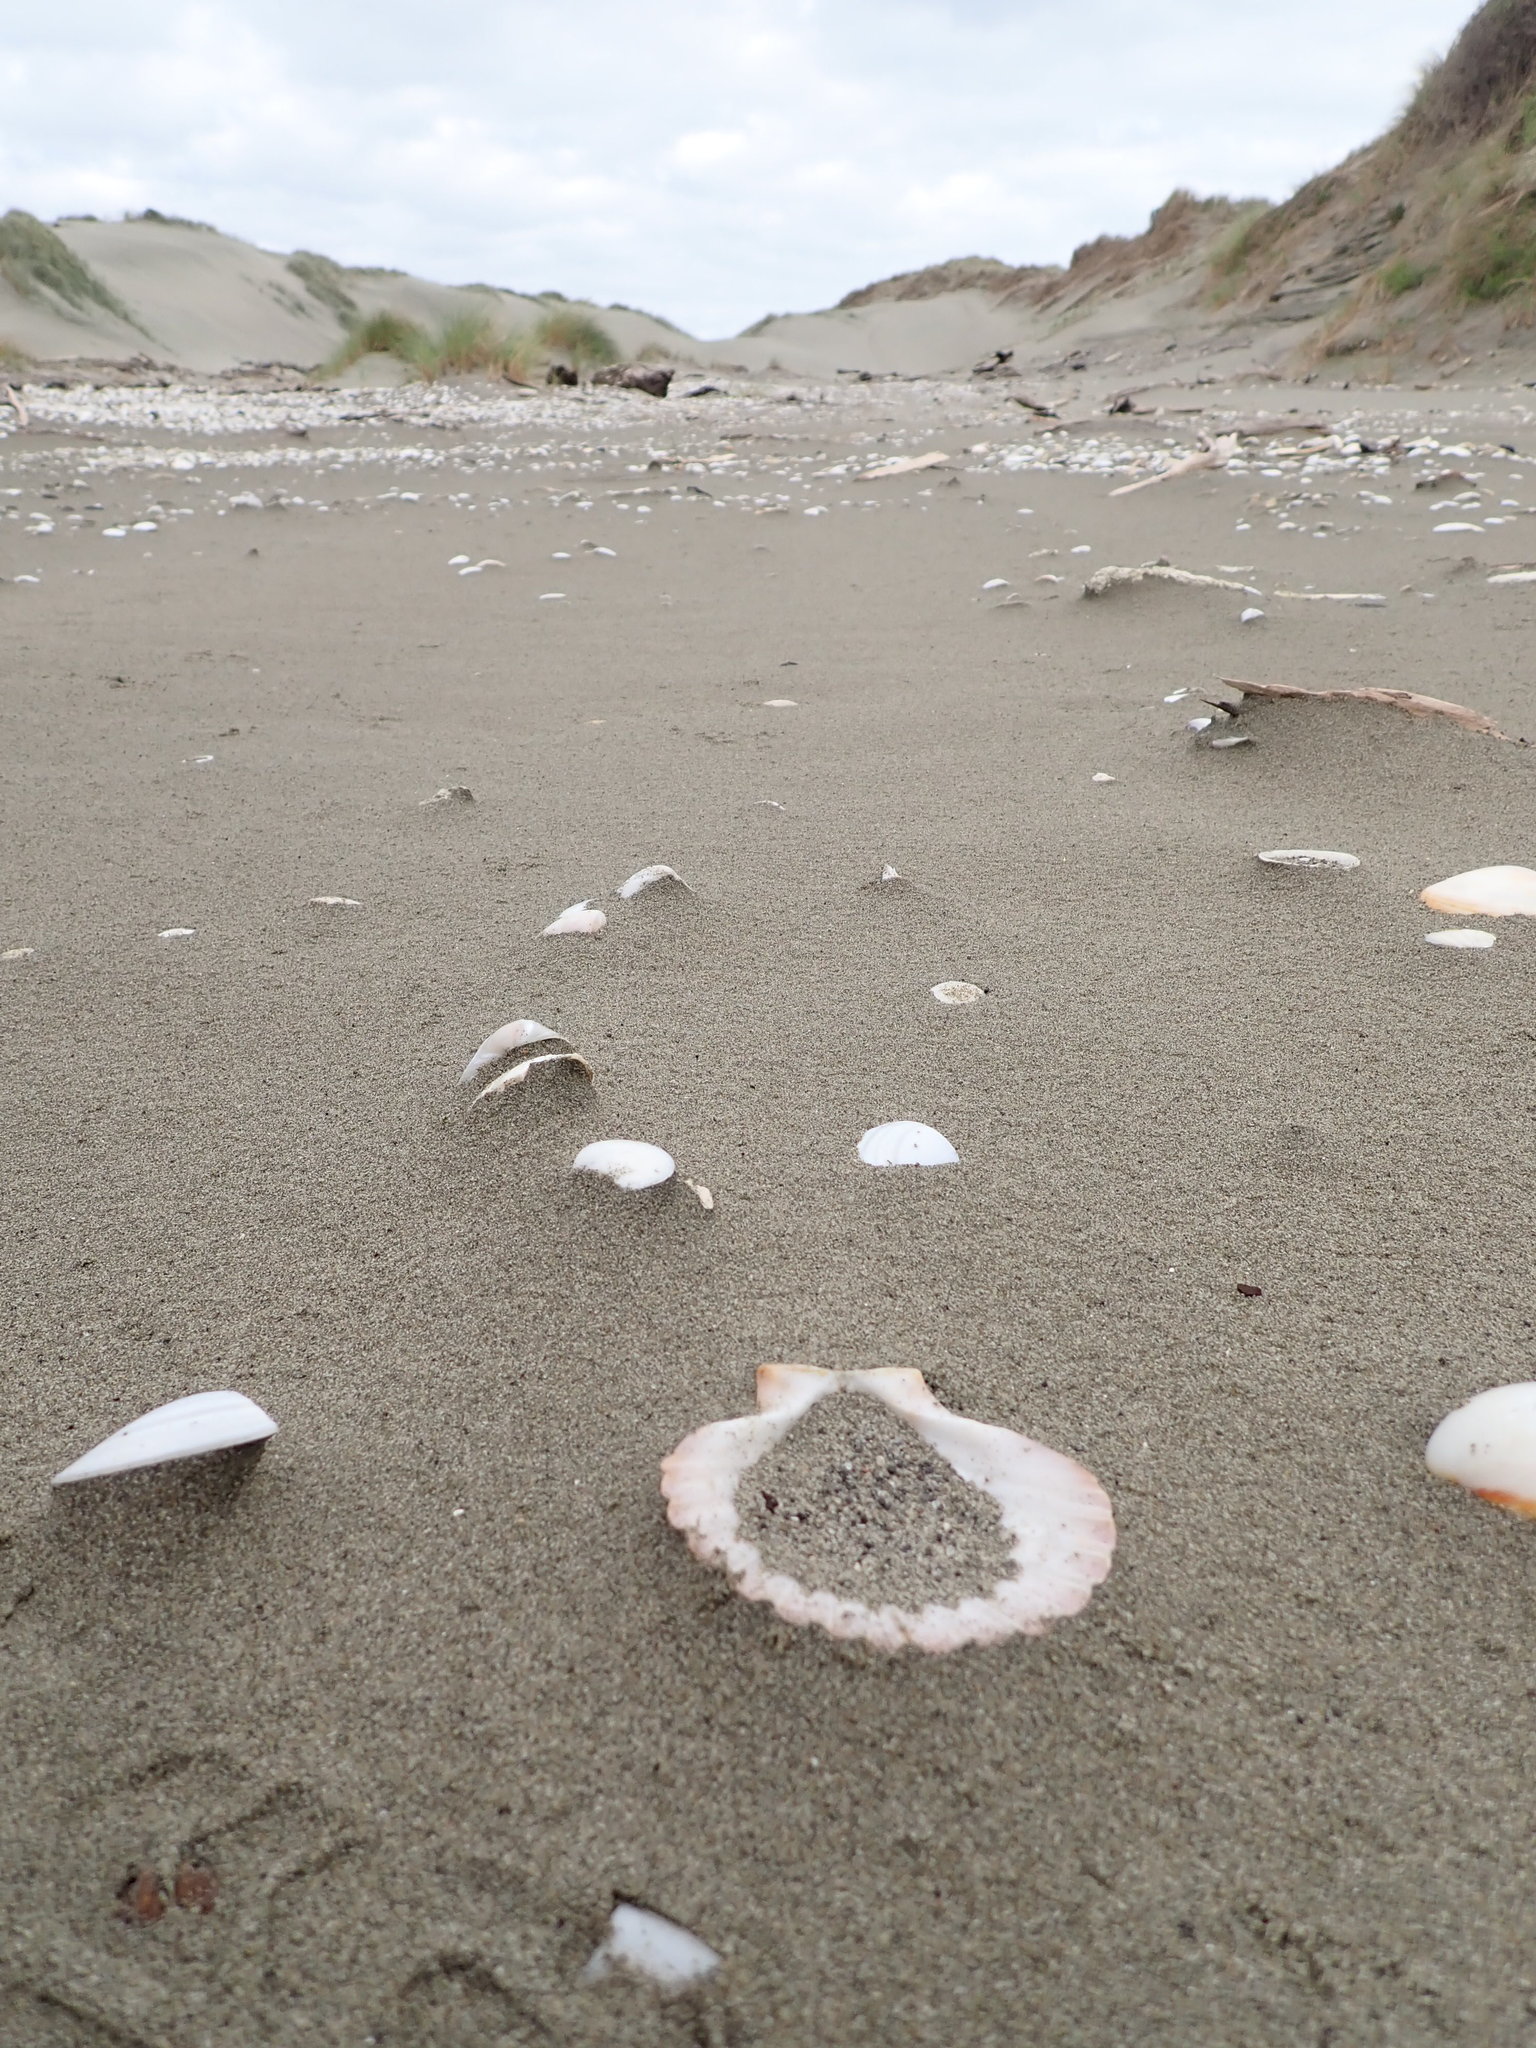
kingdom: Animalia
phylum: Mollusca
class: Bivalvia
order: Pectinida
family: Pectinidae
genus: Pecten
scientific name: Pecten novaezelandiae
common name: New zealand scallop
